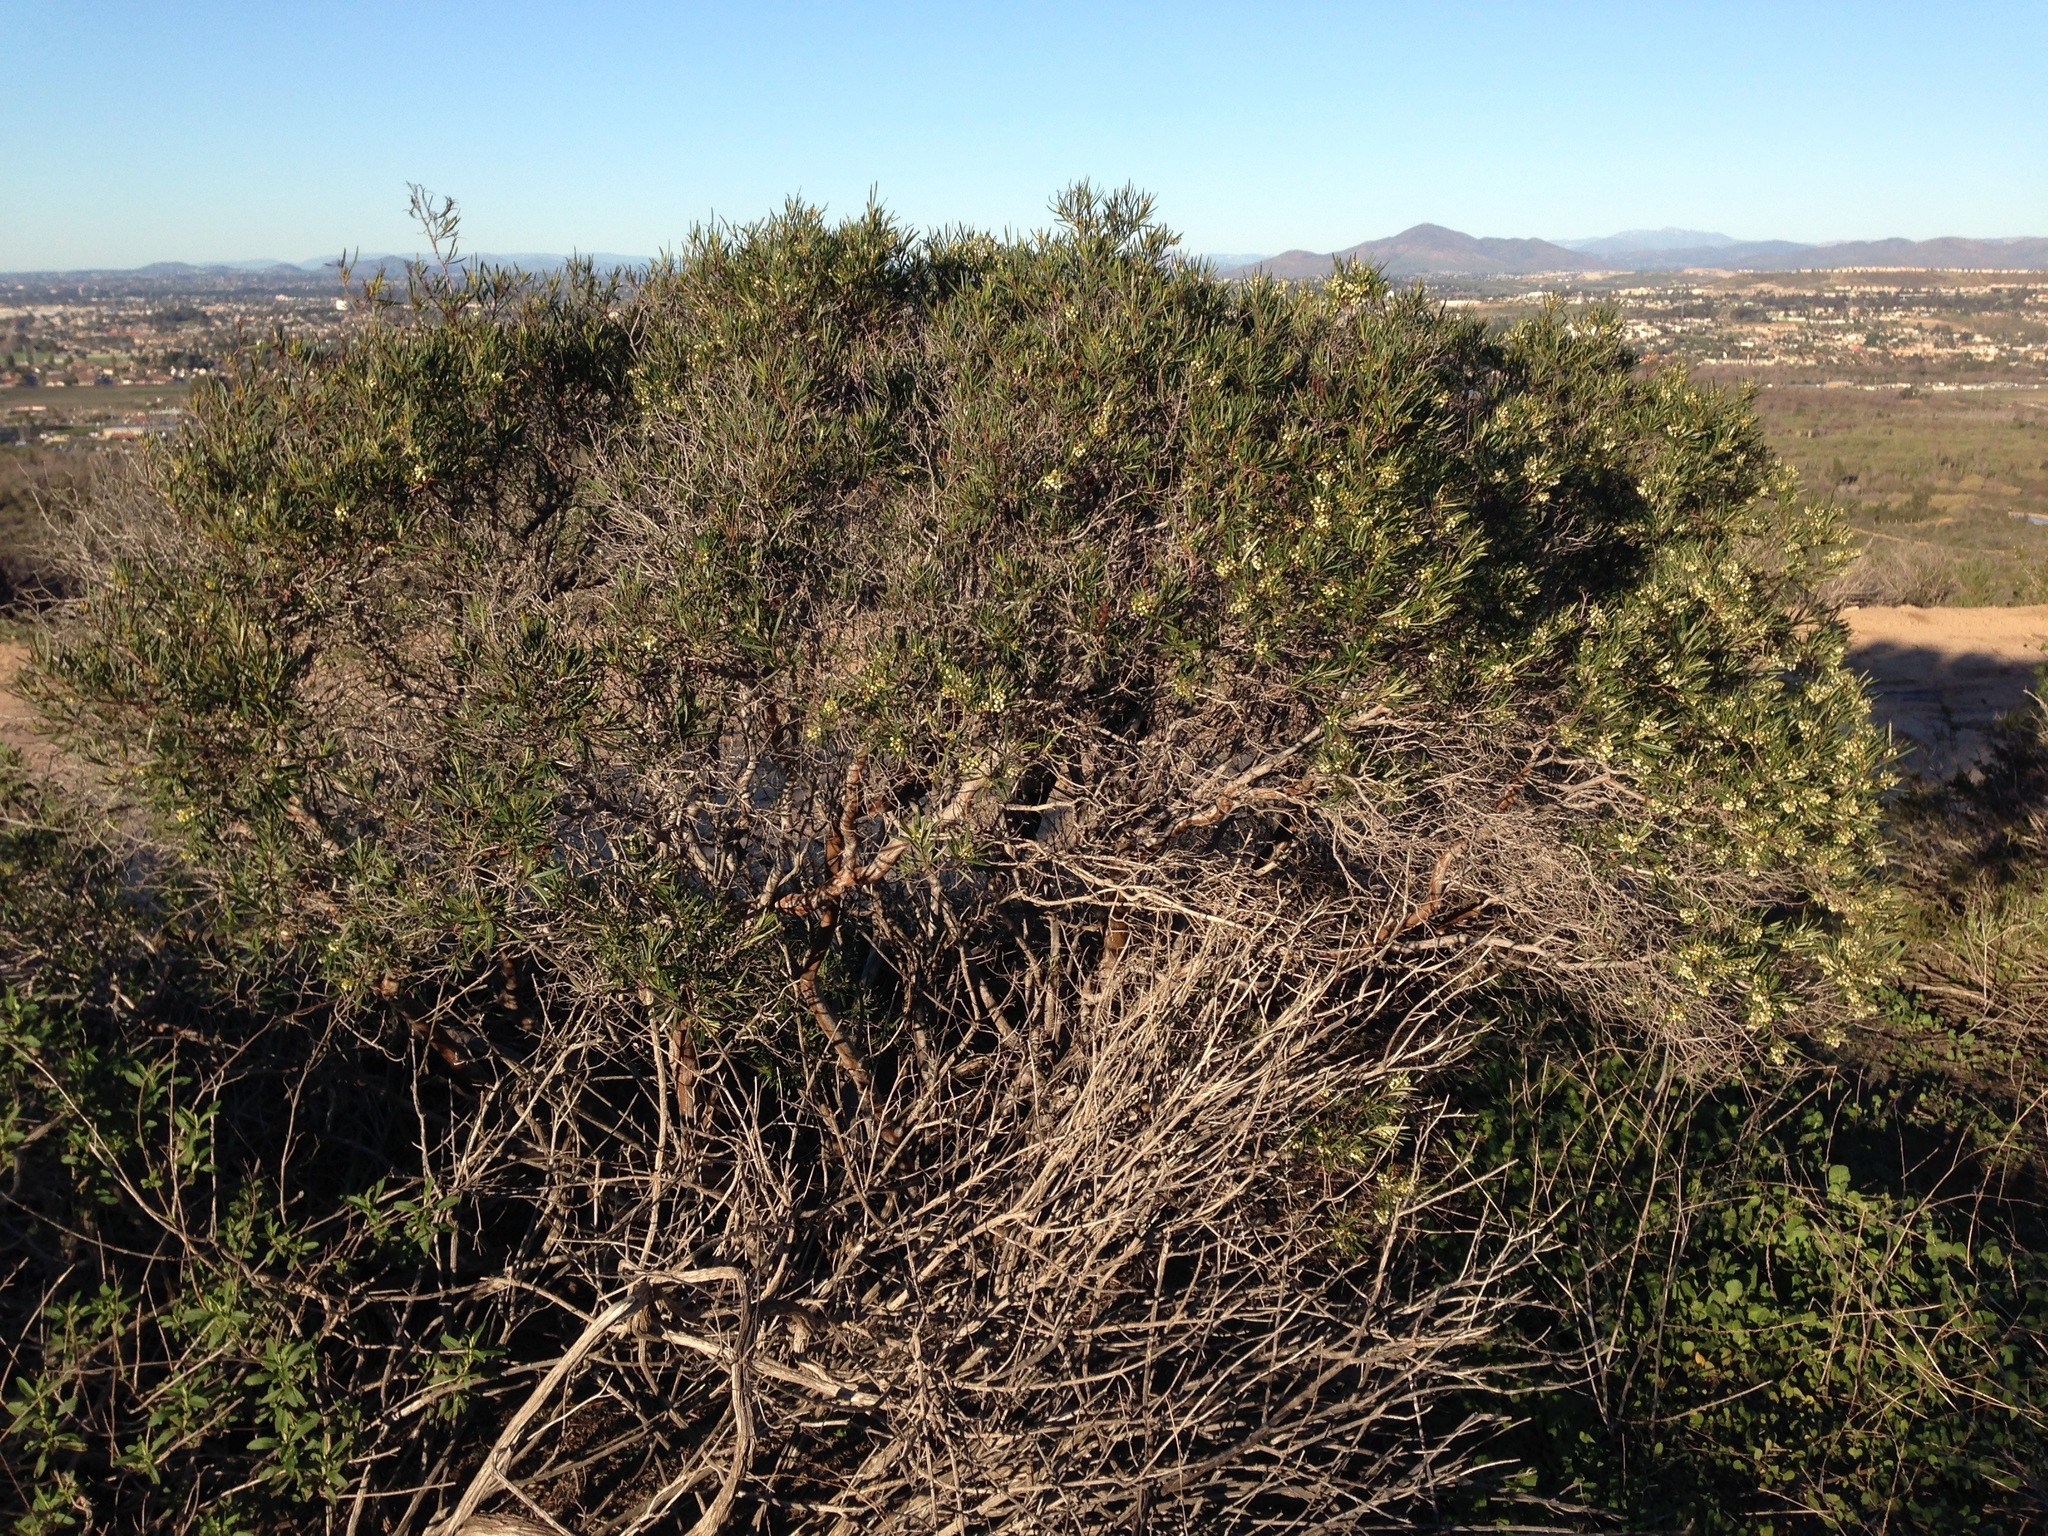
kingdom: Plantae
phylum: Tracheophyta
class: Magnoliopsida
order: Ericales
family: Ericaceae
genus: Ornithostaphylos
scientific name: Ornithostaphylos oppositifolia
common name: Baja california birdbush
